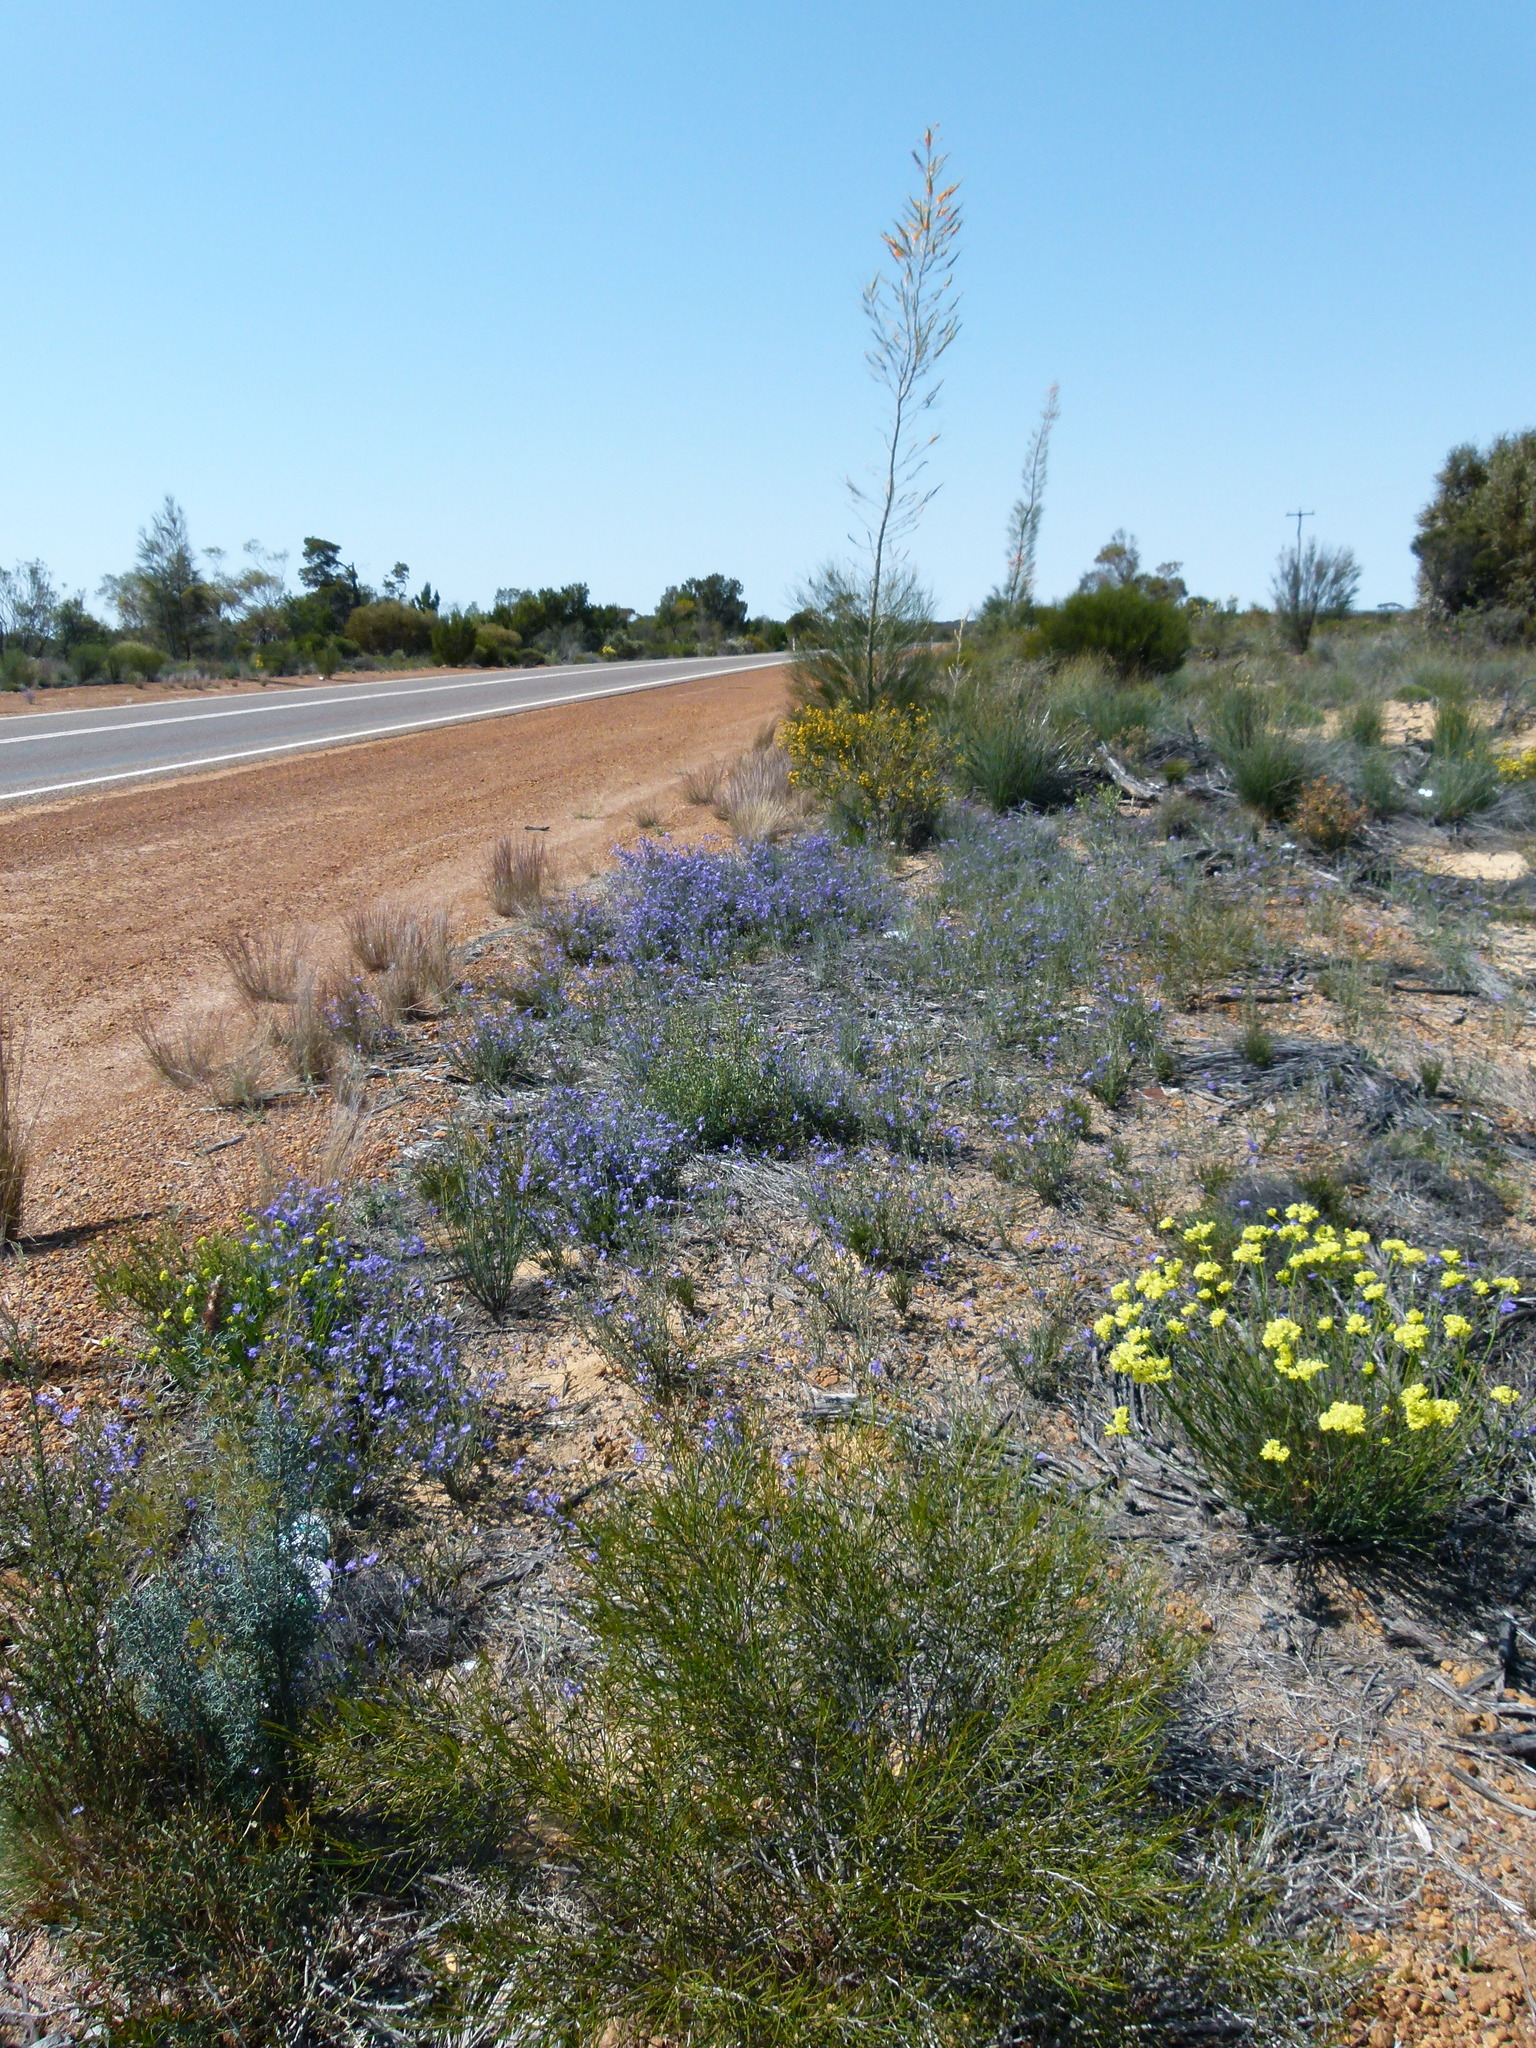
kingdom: Plantae
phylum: Tracheophyta
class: Magnoliopsida
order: Proteales
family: Proteaceae
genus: Grevillea
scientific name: Grevillea eriostachya
